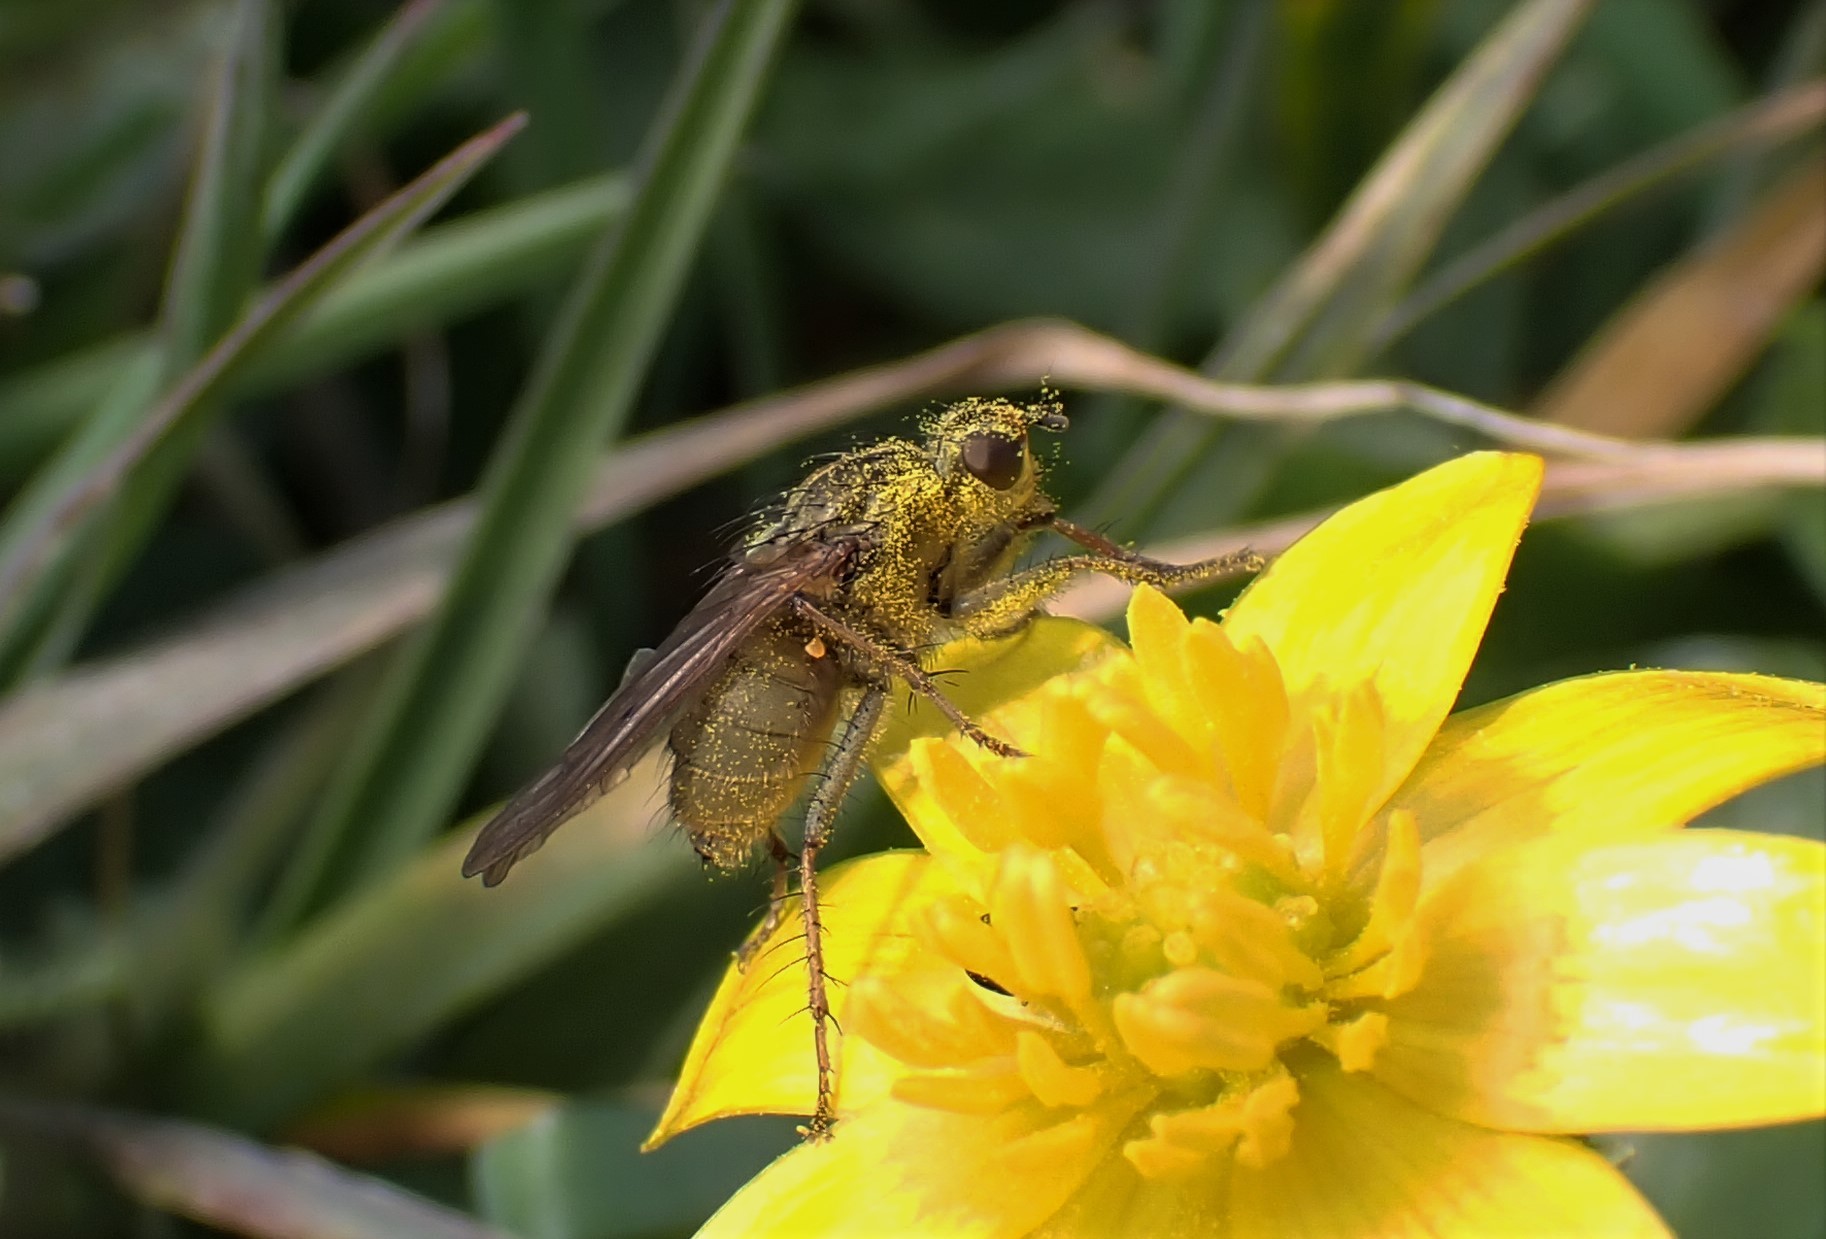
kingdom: Animalia
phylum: Arthropoda
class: Insecta
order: Diptera
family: Scathophagidae
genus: Scathophaga
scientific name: Scathophaga stercoraria
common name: Yellow dung fly
